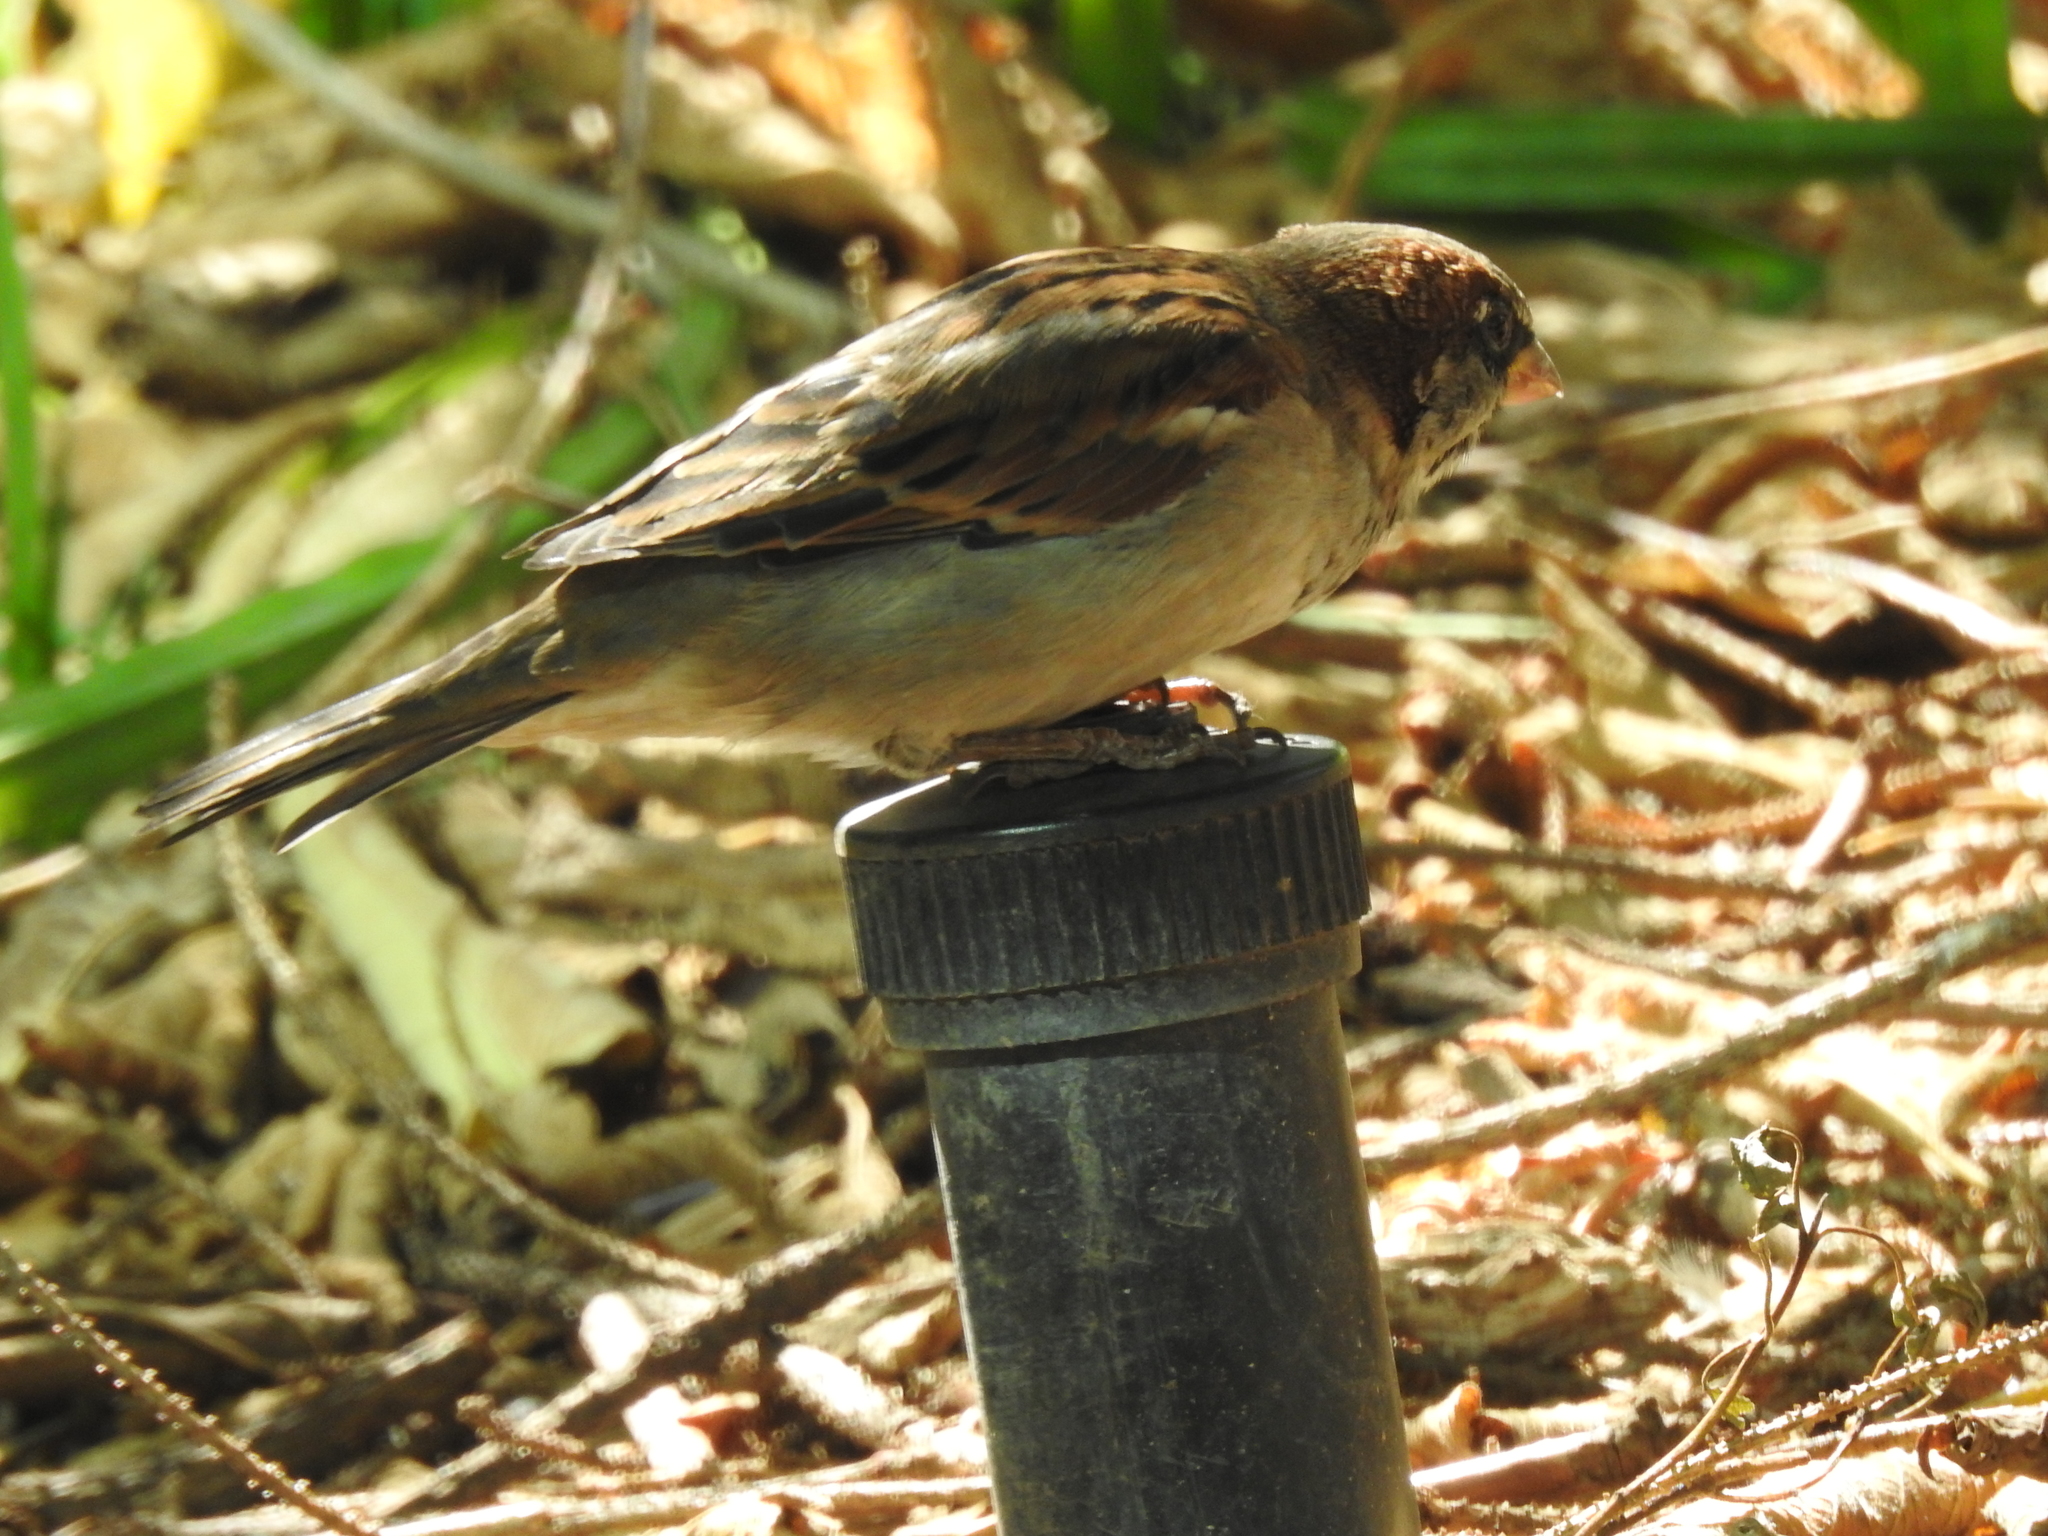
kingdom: Animalia
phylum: Chordata
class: Aves
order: Passeriformes
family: Passeridae
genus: Passer
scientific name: Passer domesticus
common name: House sparrow
